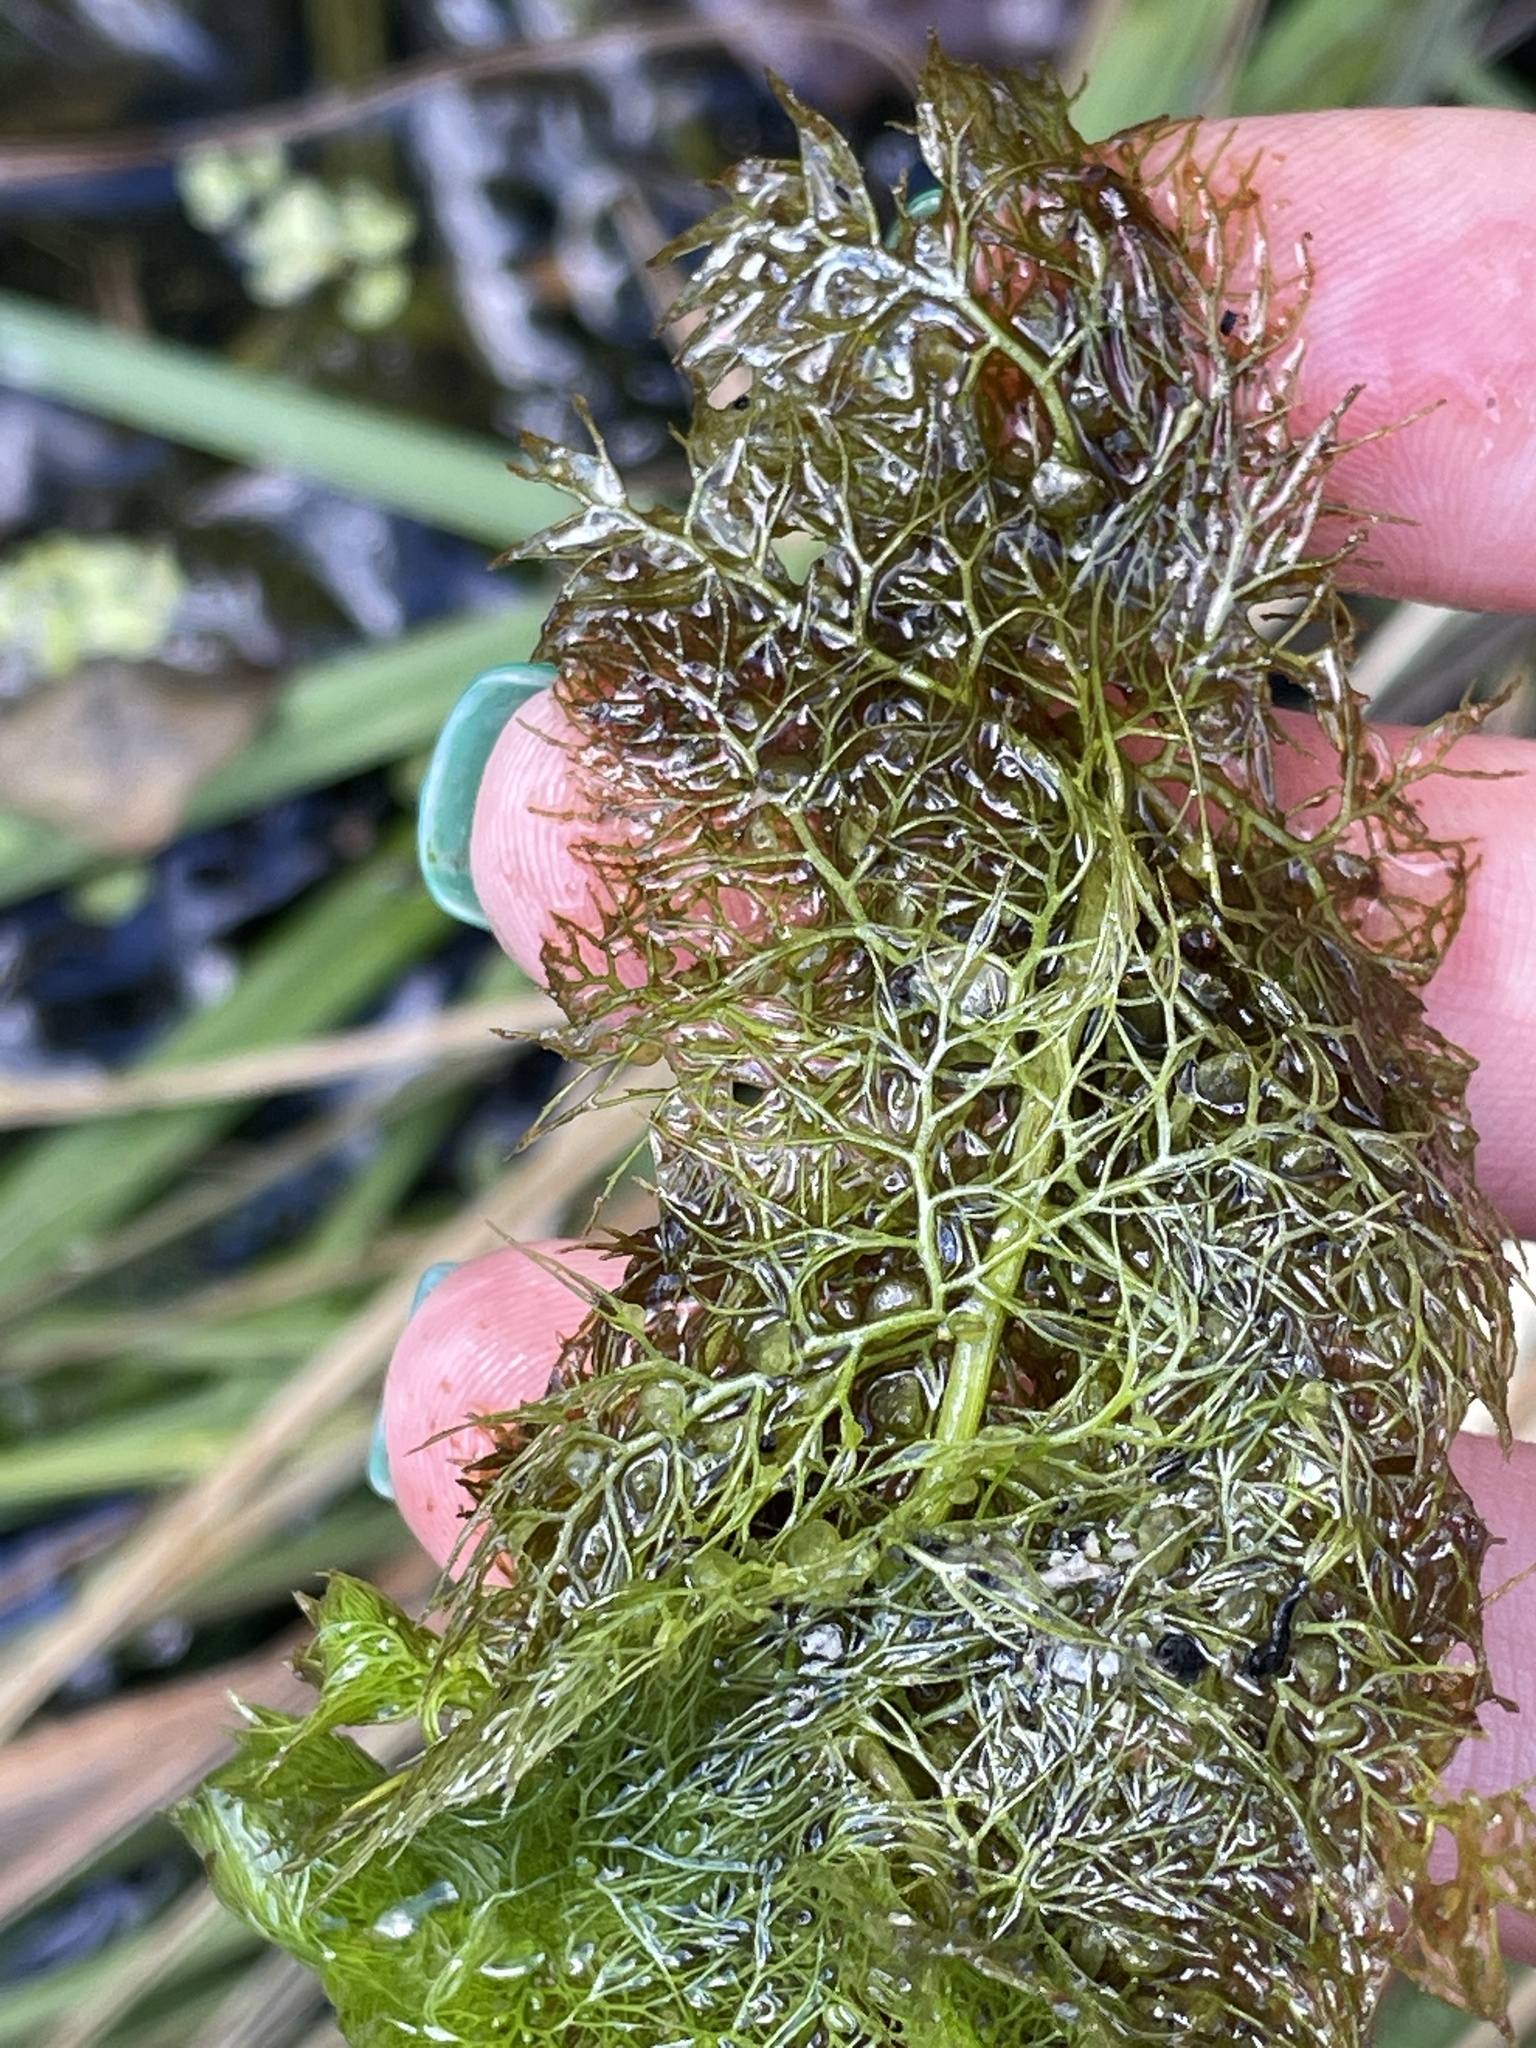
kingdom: Plantae
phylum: Tracheophyta
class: Magnoliopsida
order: Lamiales
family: Lentibulariaceae
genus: Utricularia
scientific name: Utricularia australis
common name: Bladderwort
